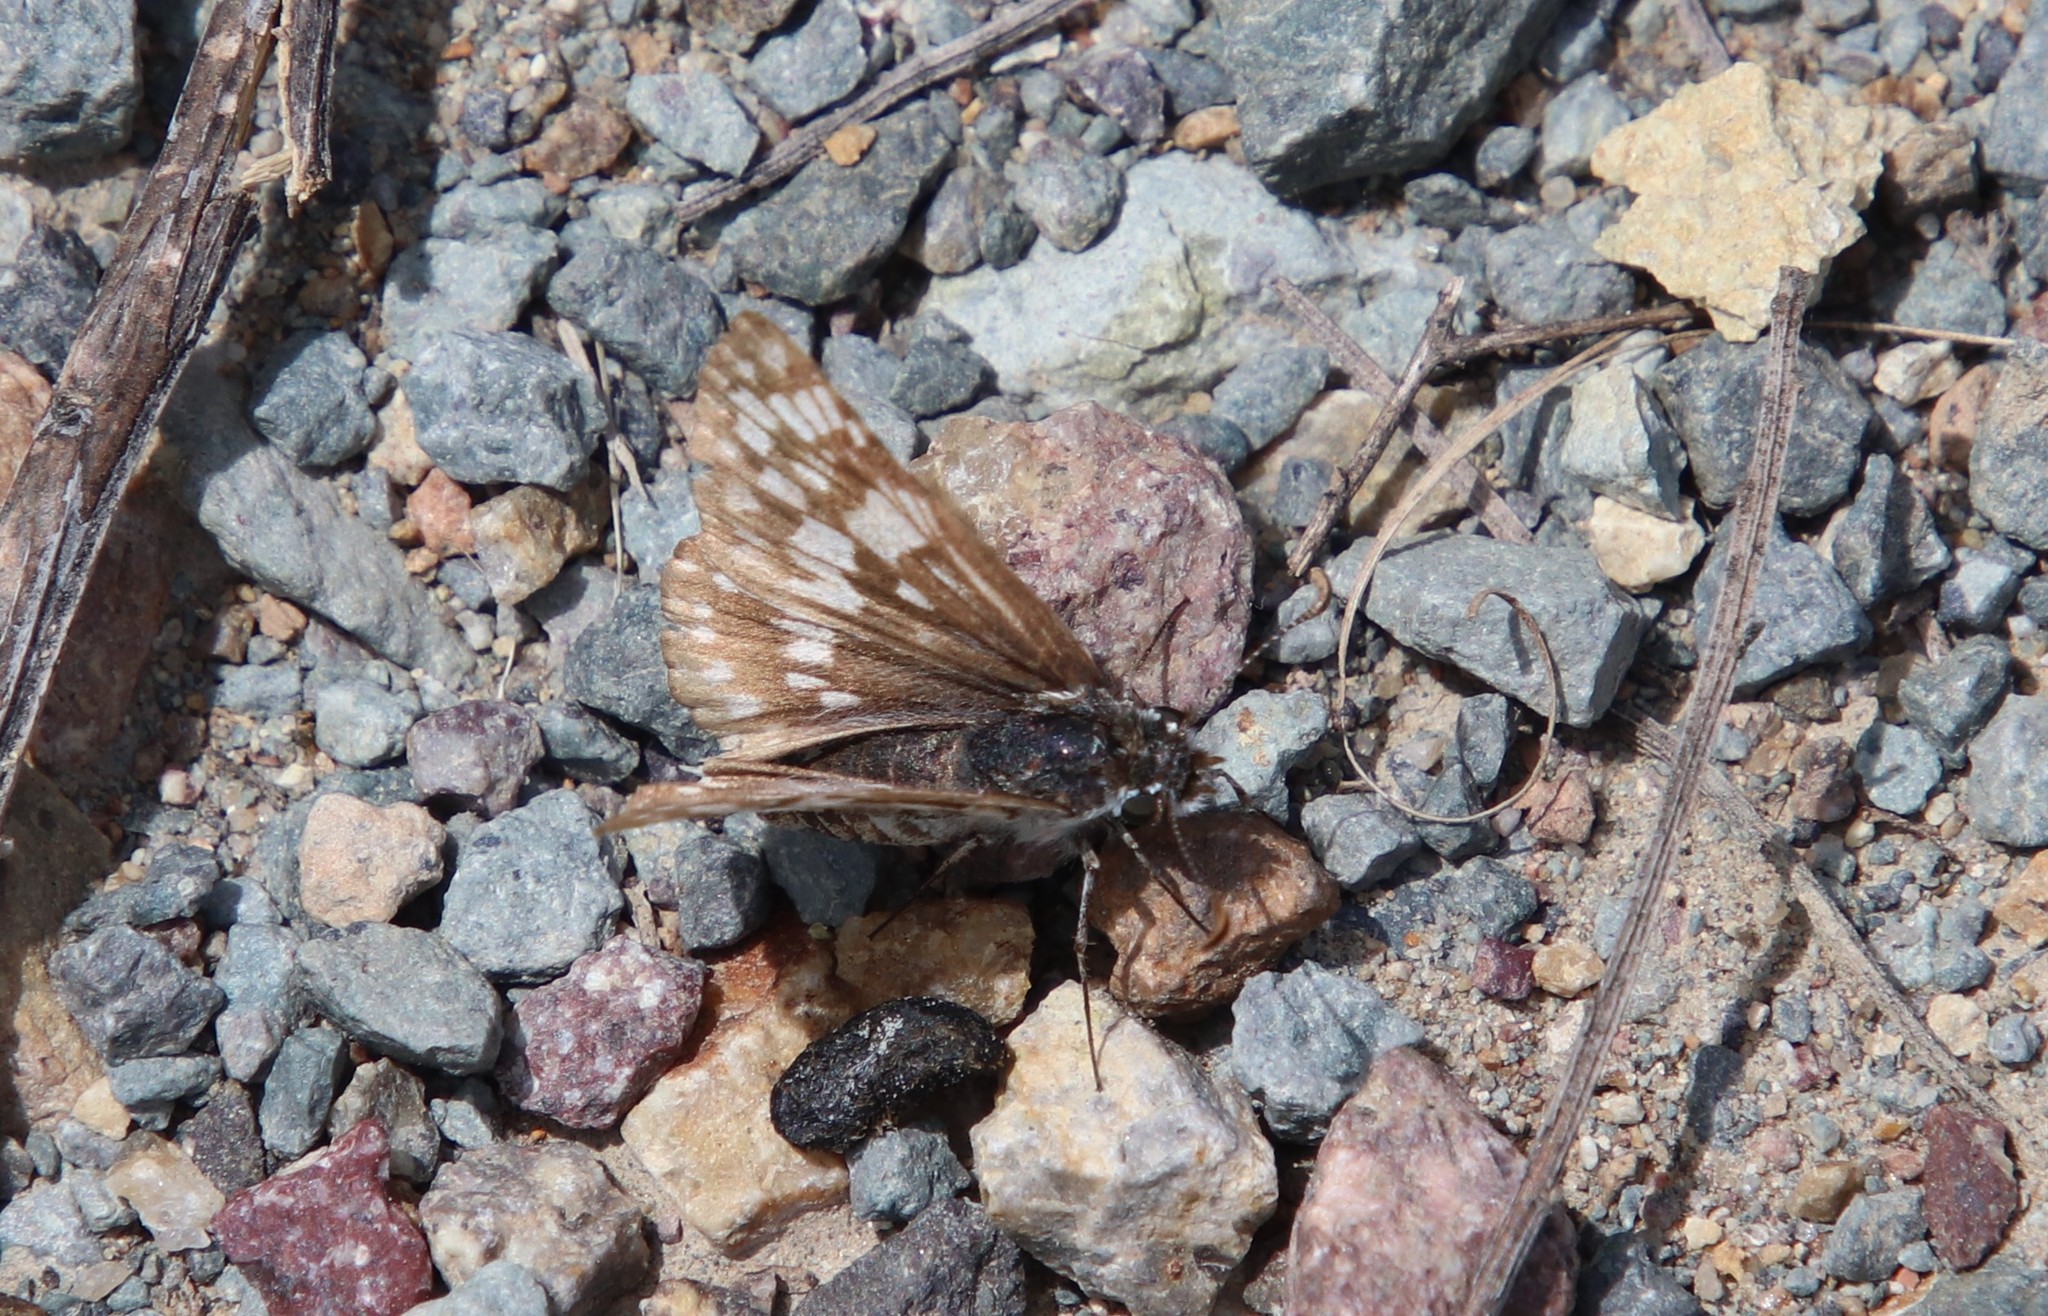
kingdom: Animalia
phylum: Arthropoda
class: Insecta
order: Lepidoptera
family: Hesperiidae
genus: Burnsius
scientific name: Burnsius albezens
